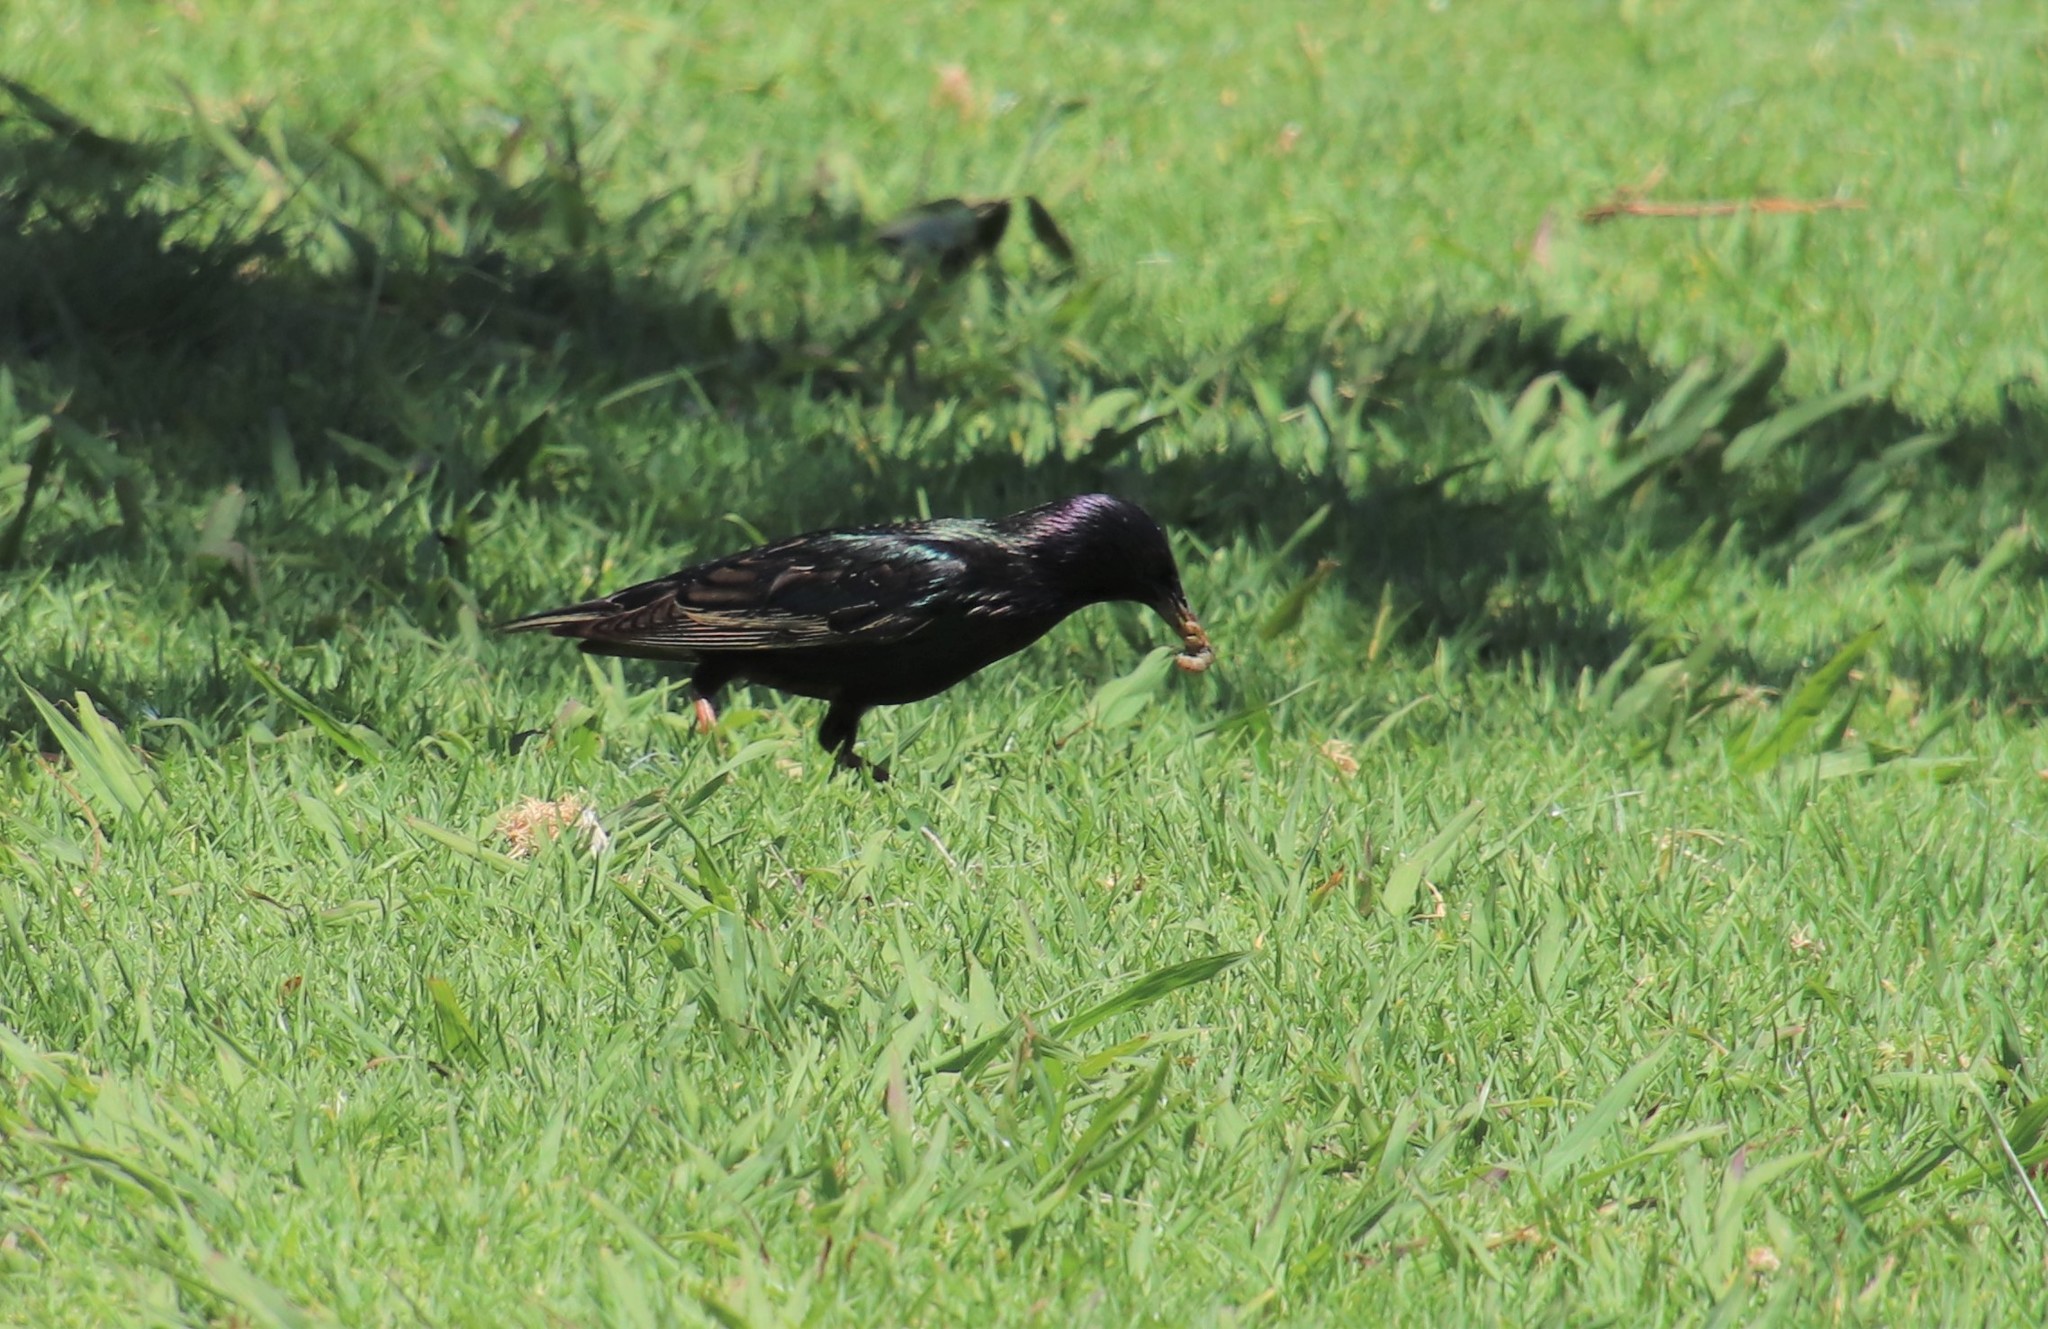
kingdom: Animalia
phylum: Chordata
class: Aves
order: Passeriformes
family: Sturnidae
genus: Sturnus
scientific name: Sturnus vulgaris
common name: Common starling
